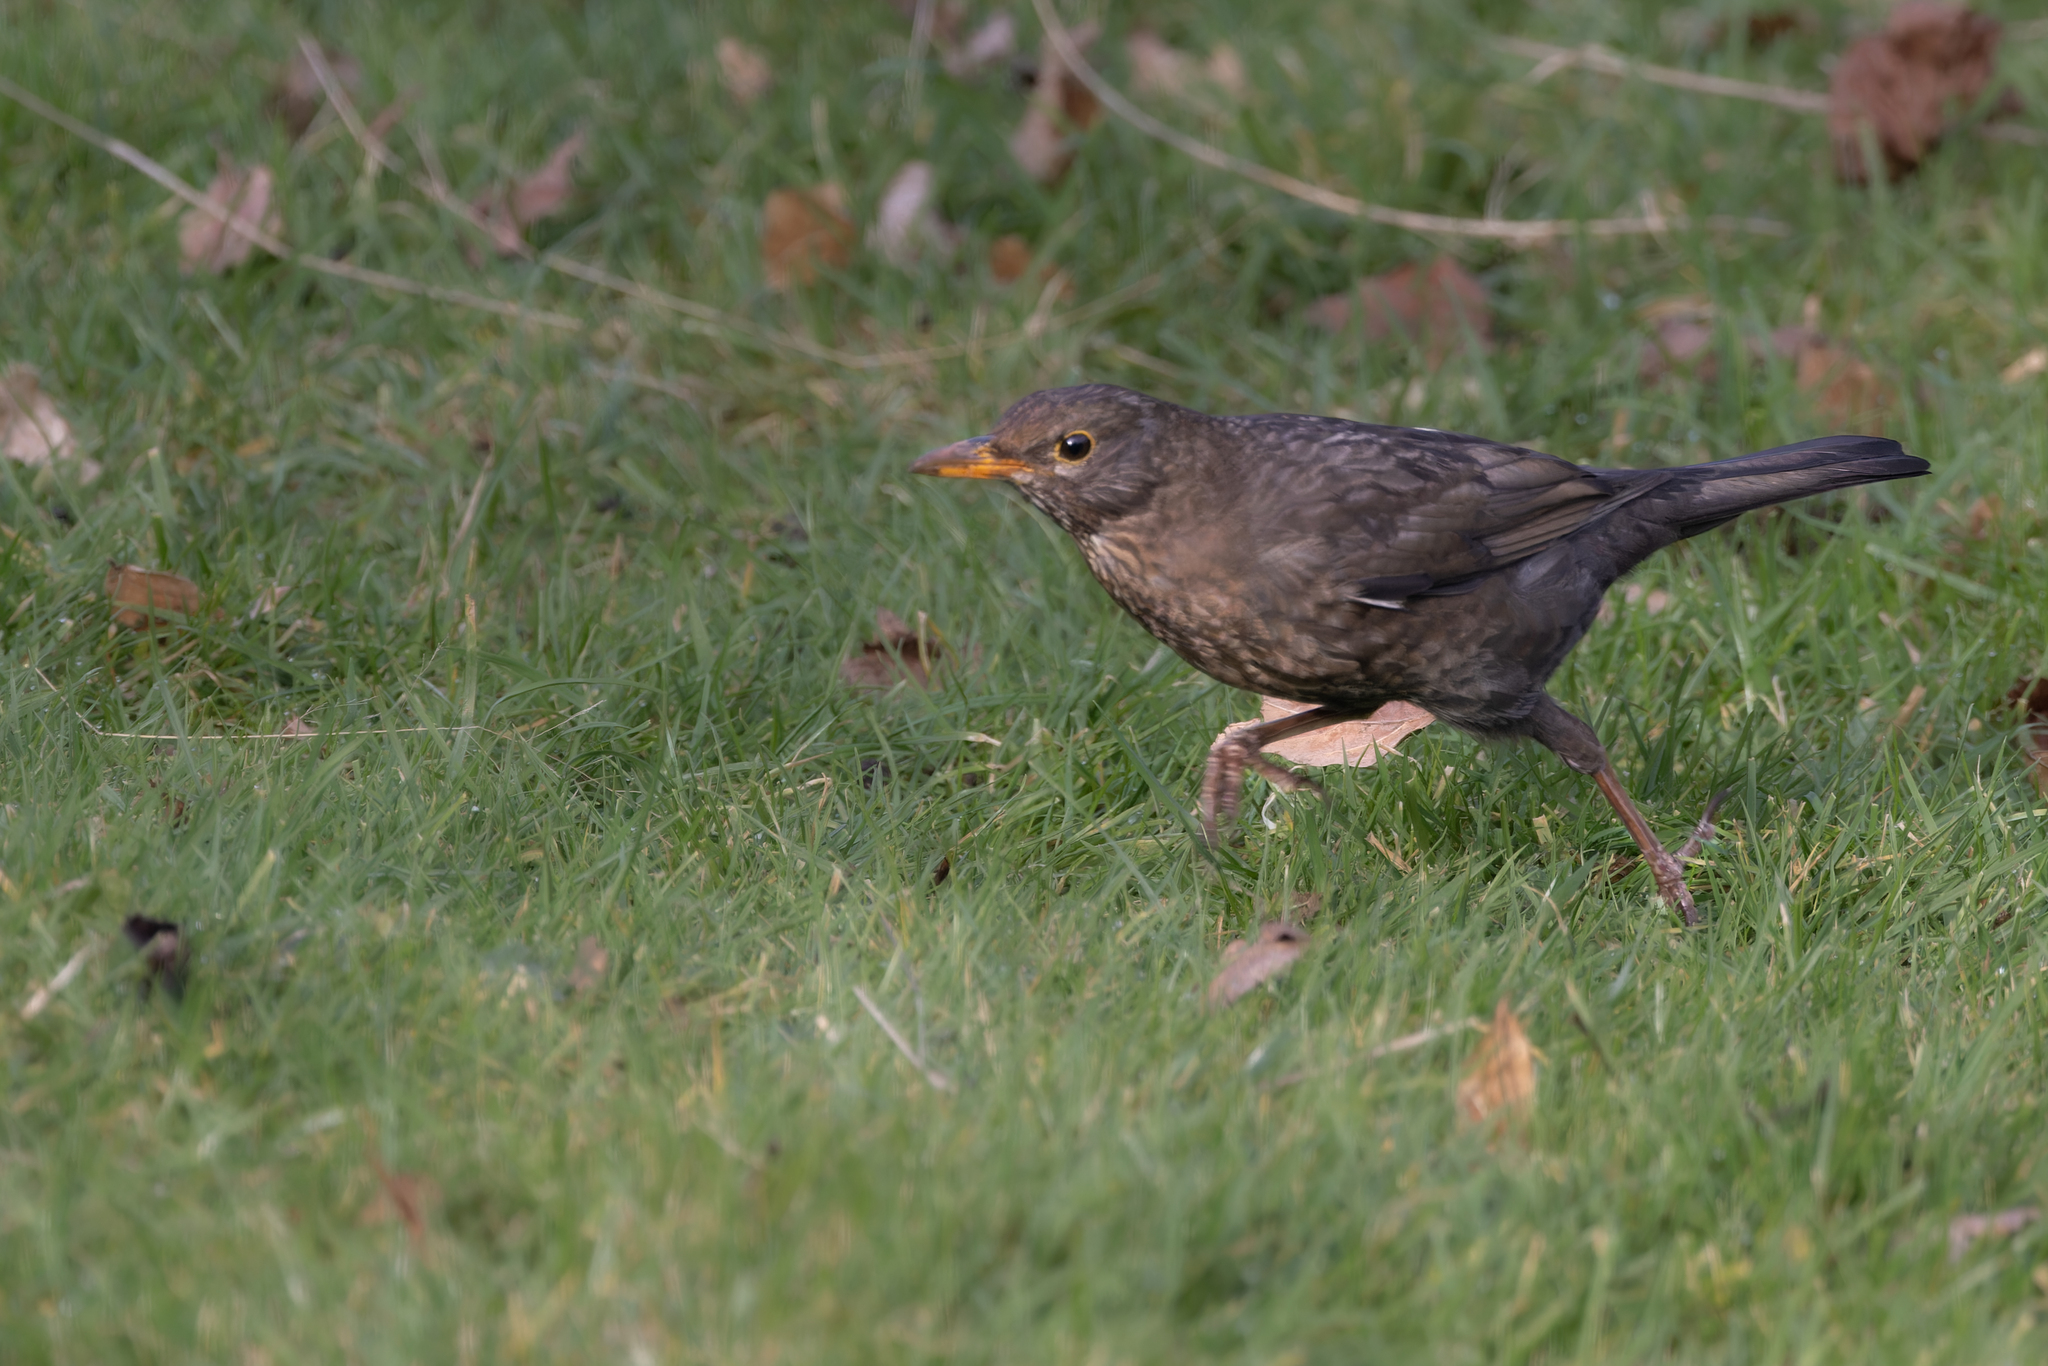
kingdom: Animalia
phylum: Chordata
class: Aves
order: Passeriformes
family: Turdidae
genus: Turdus
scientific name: Turdus merula
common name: Common blackbird
